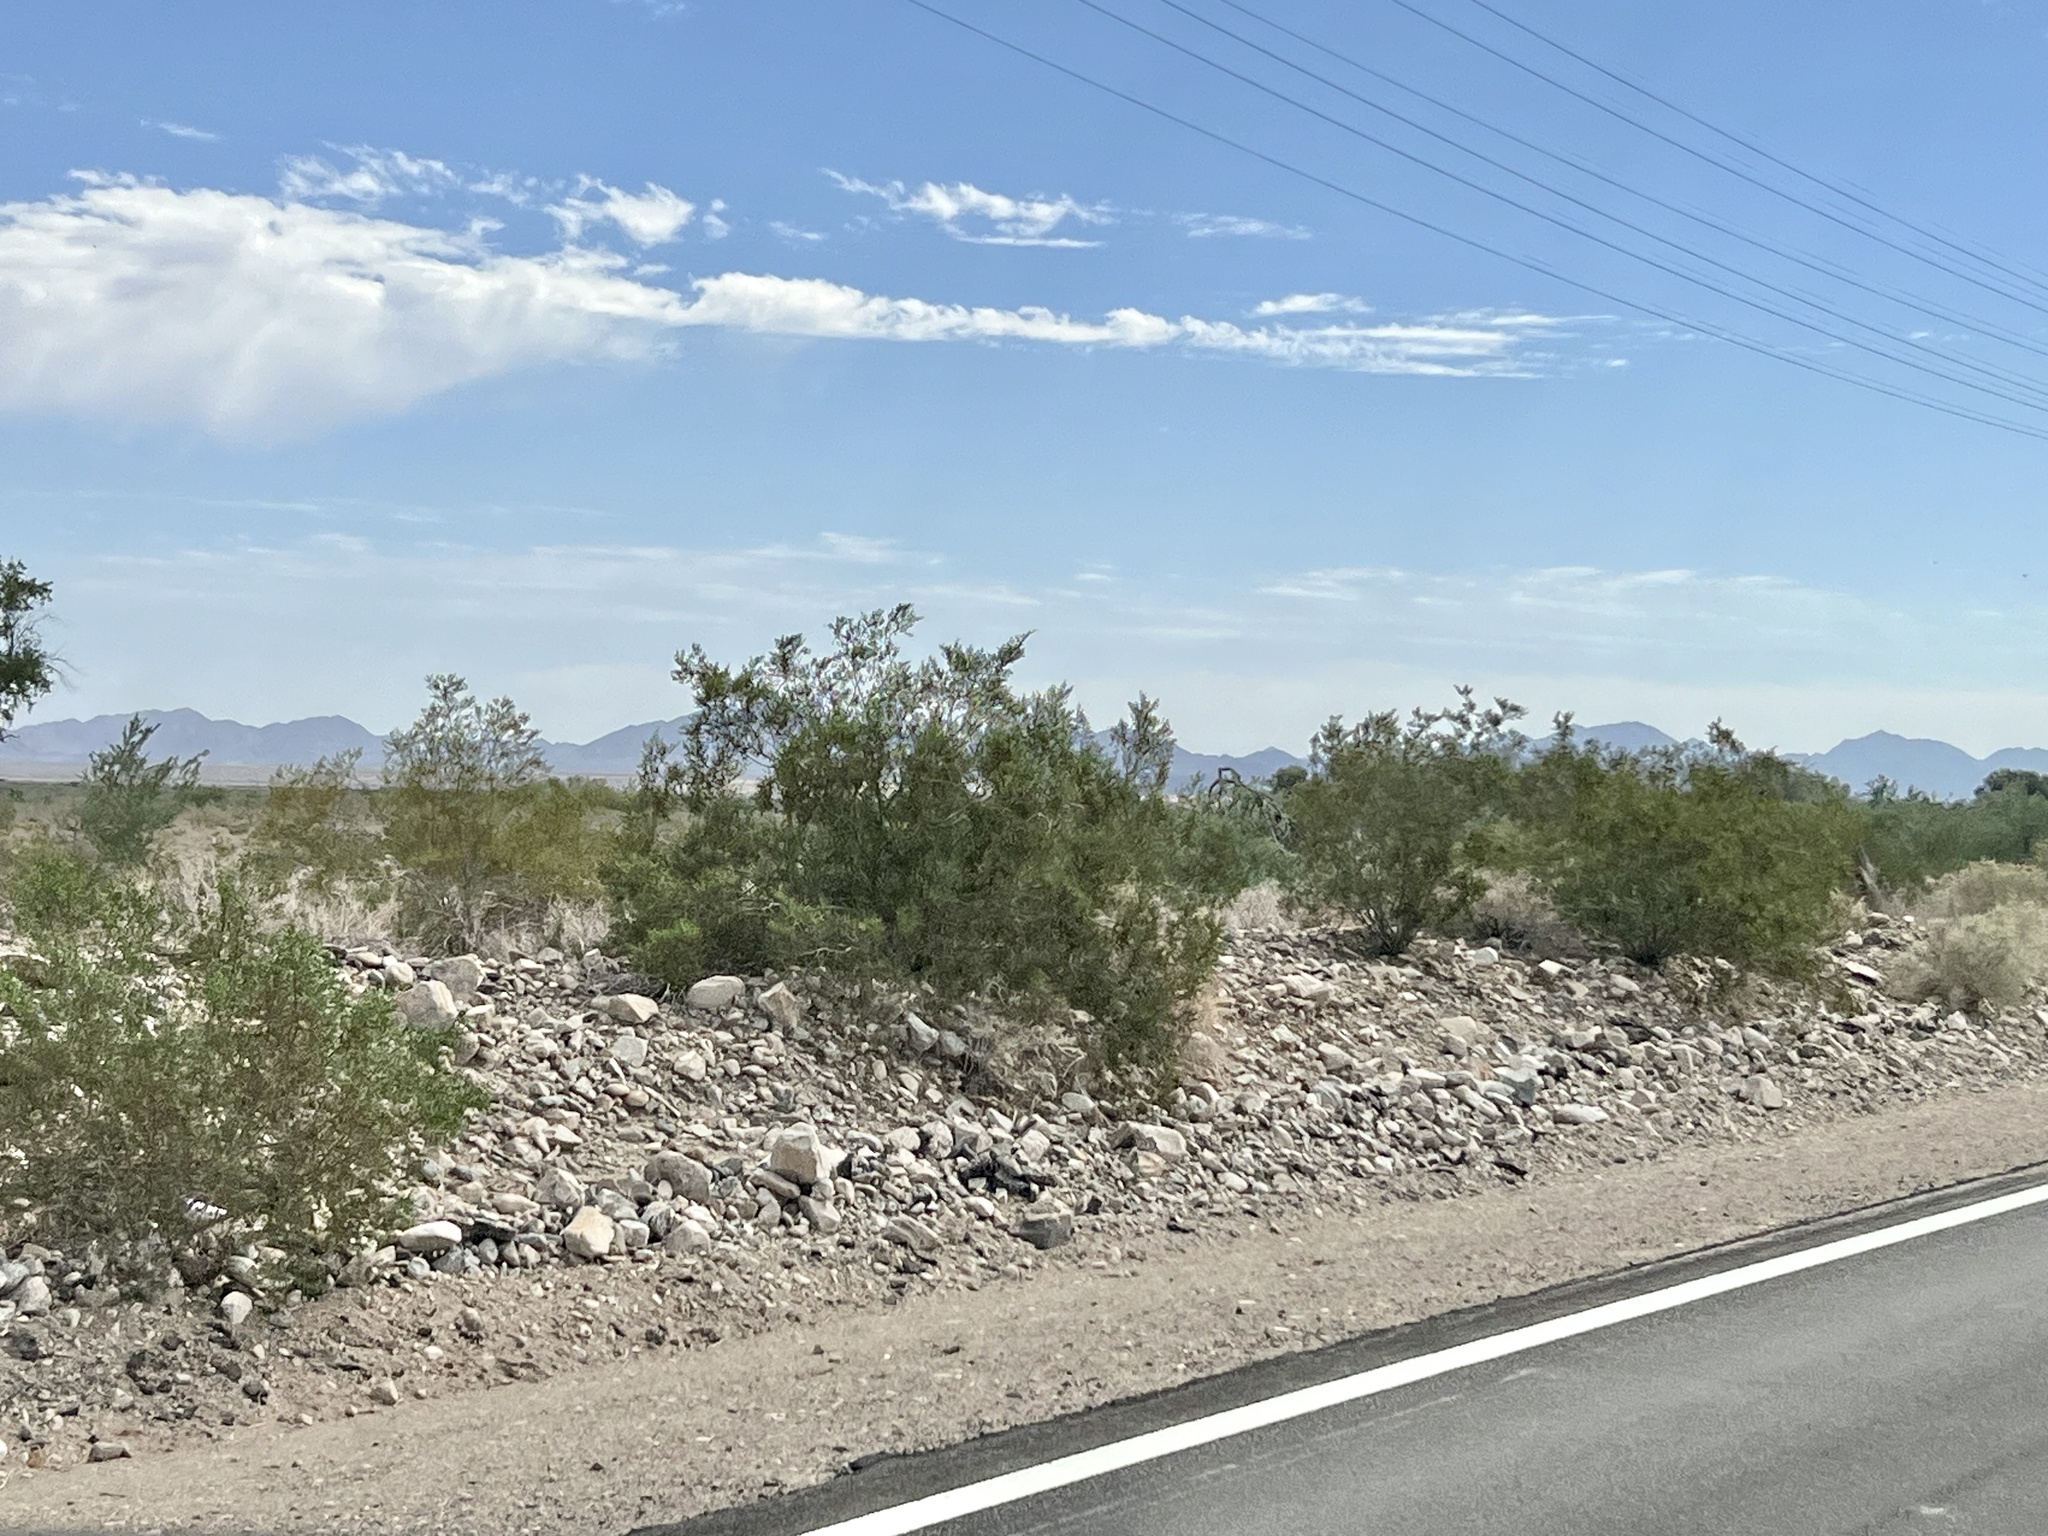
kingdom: Plantae
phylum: Tracheophyta
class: Magnoliopsida
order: Zygophyllales
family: Zygophyllaceae
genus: Larrea
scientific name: Larrea tridentata
